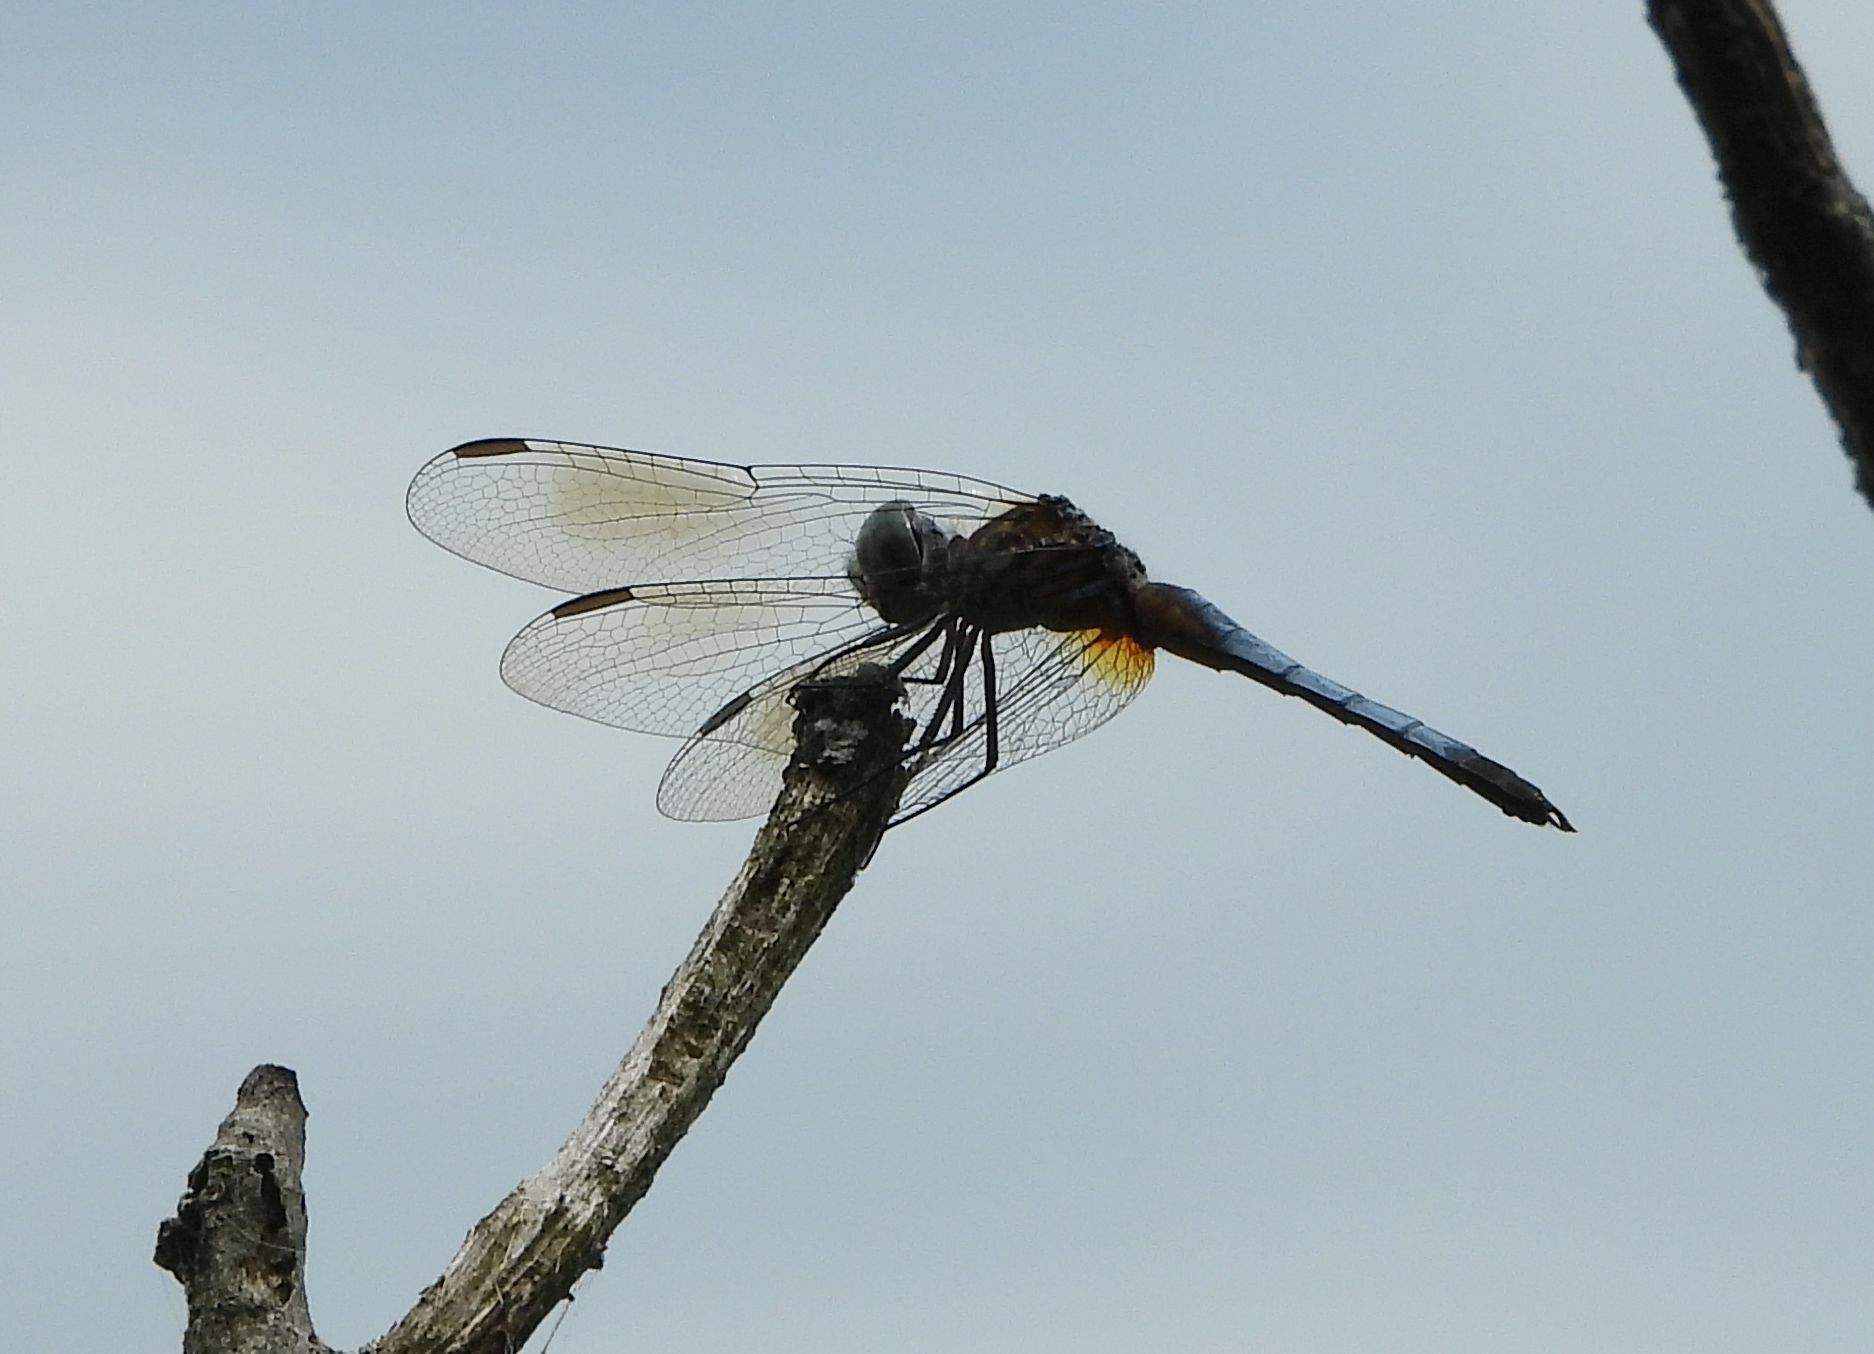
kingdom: Animalia
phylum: Arthropoda
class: Insecta
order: Odonata
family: Libellulidae
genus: Pachydiplax
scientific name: Pachydiplax longipennis
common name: Blue dasher
